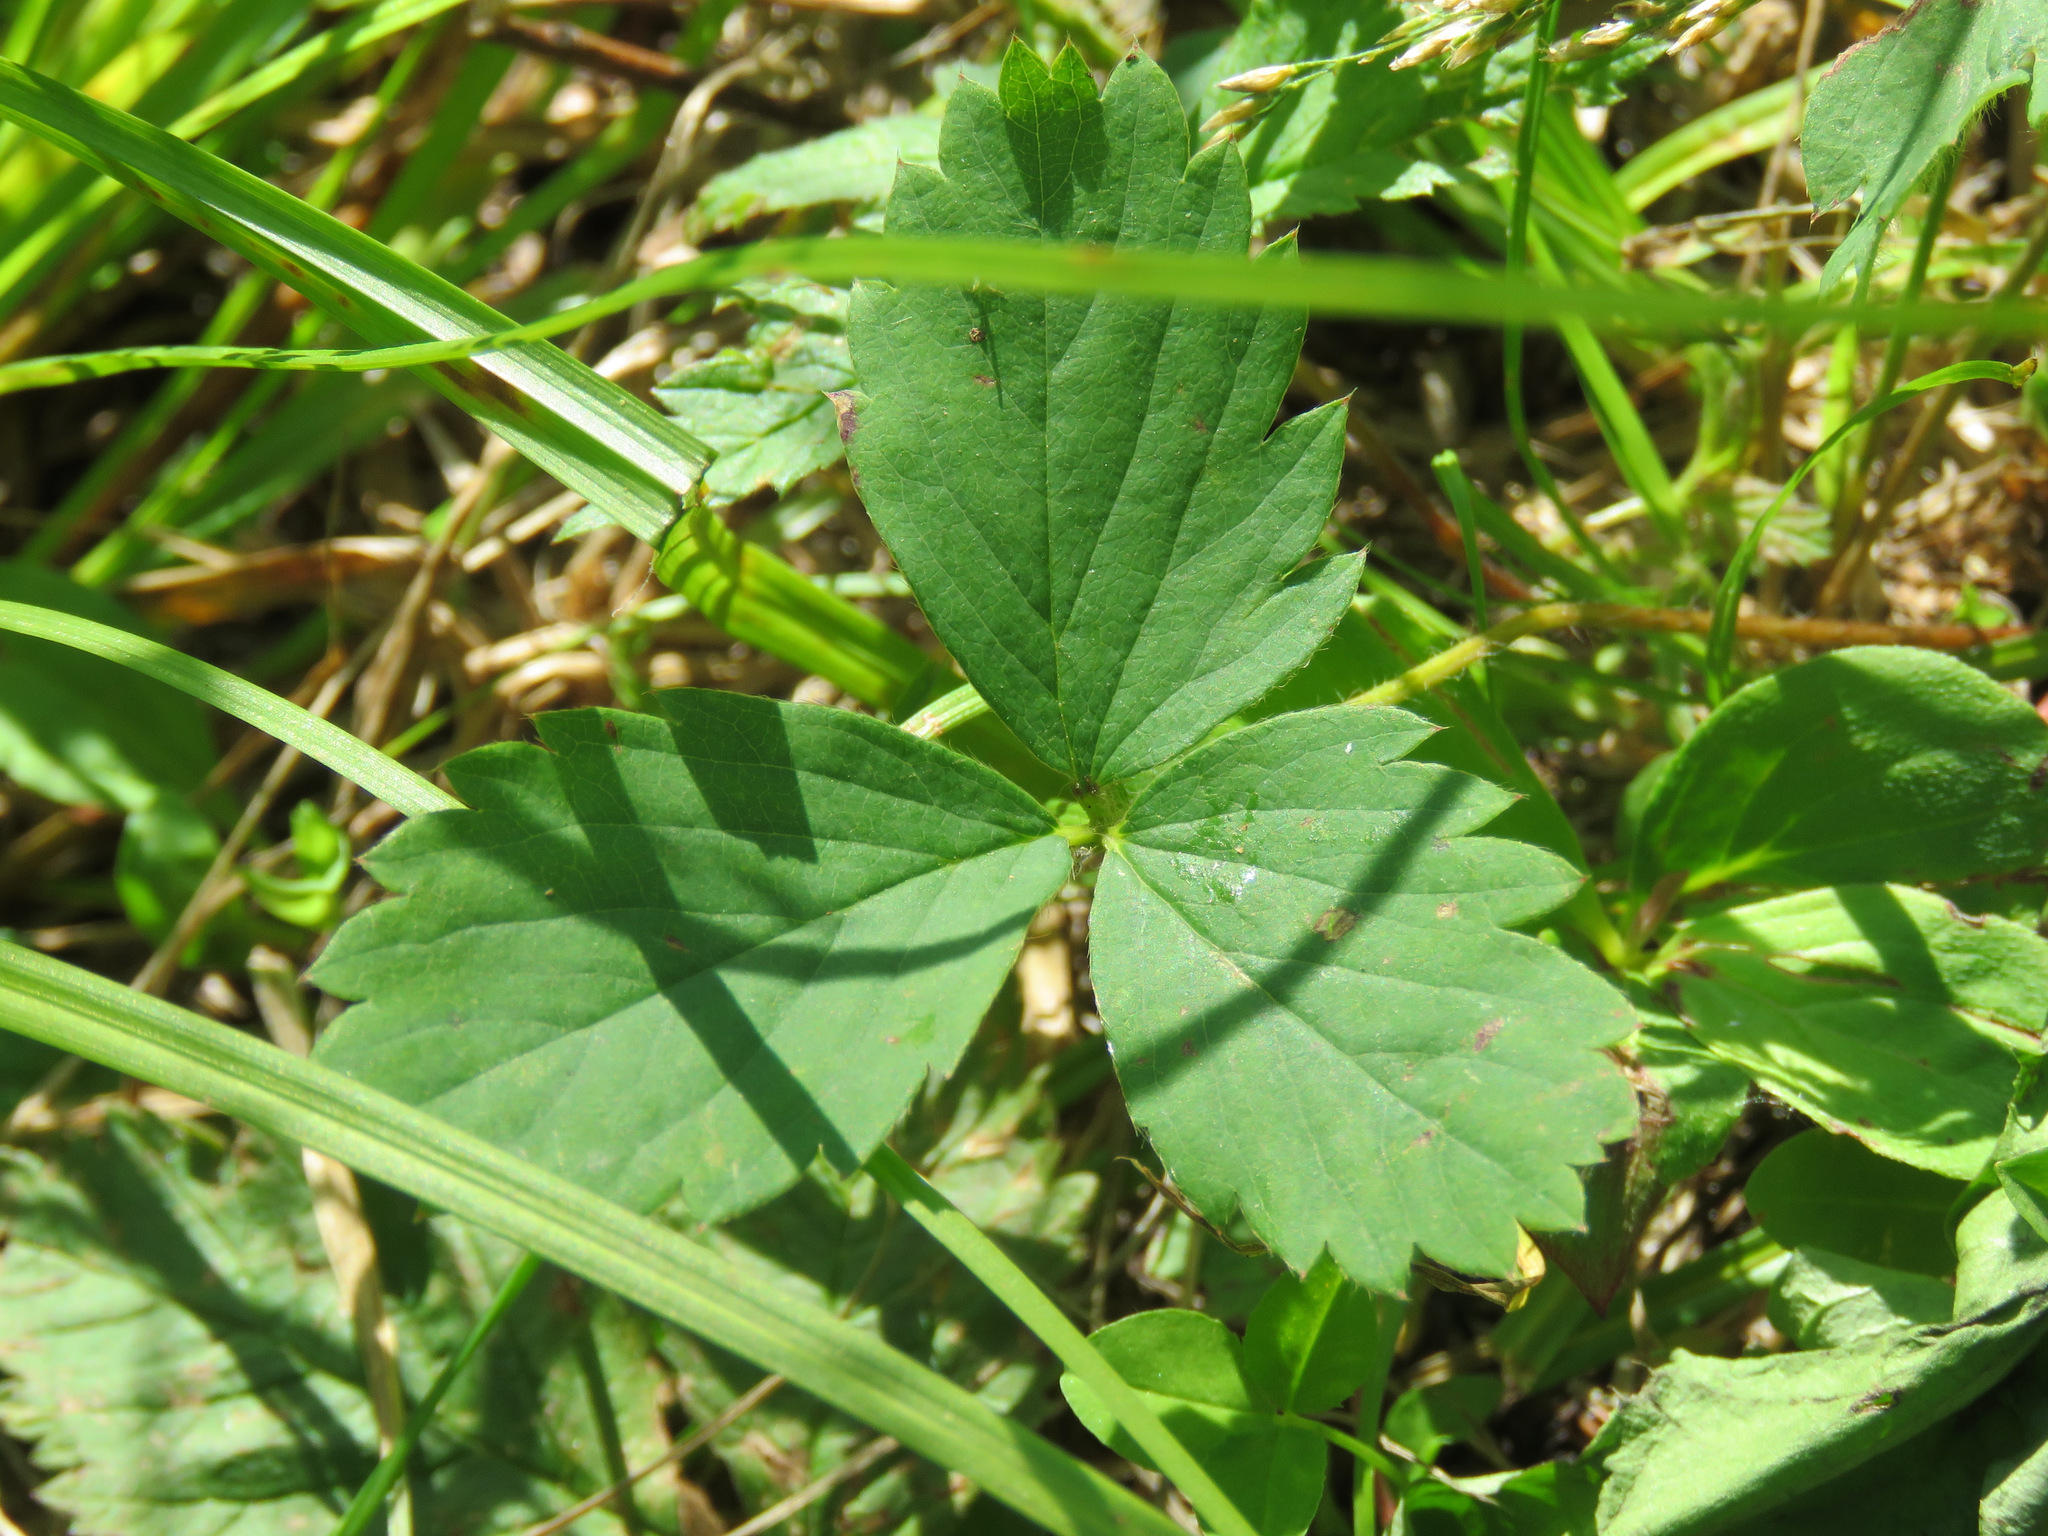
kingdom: Plantae
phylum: Tracheophyta
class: Magnoliopsida
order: Rosales
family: Rosaceae
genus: Fragaria
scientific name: Fragaria virginiana
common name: Thickleaved wild strawberry
